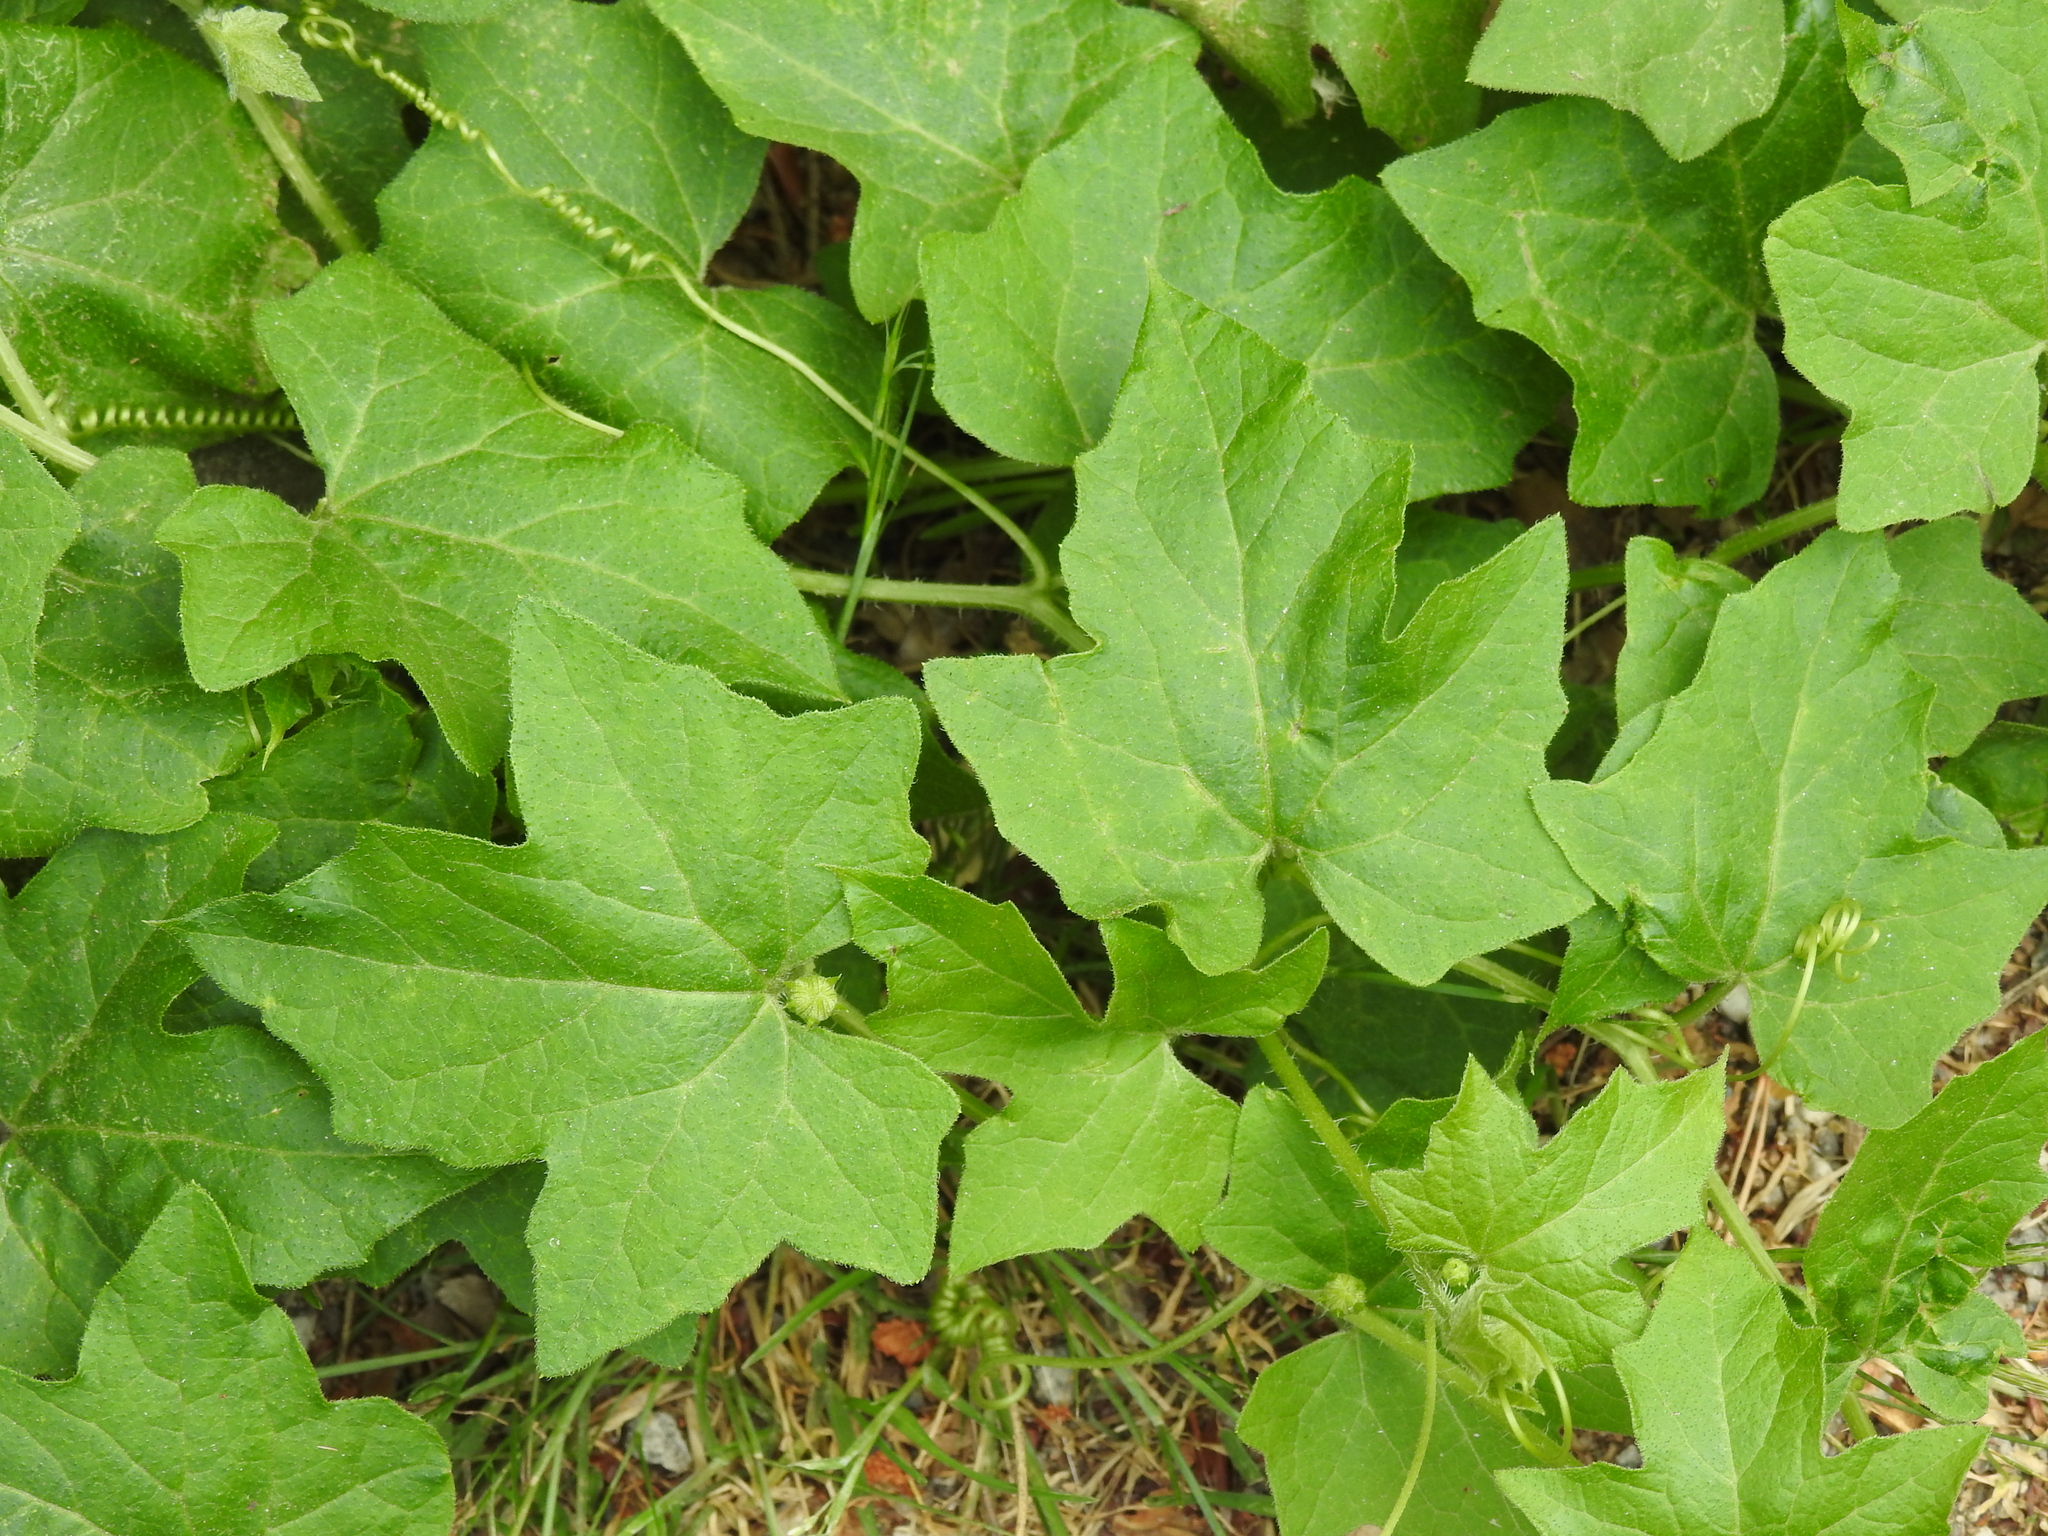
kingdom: Plantae
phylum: Tracheophyta
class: Magnoliopsida
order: Cucurbitales
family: Cucurbitaceae
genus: Bryonia
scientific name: Bryonia cretica
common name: Cretan bryony
